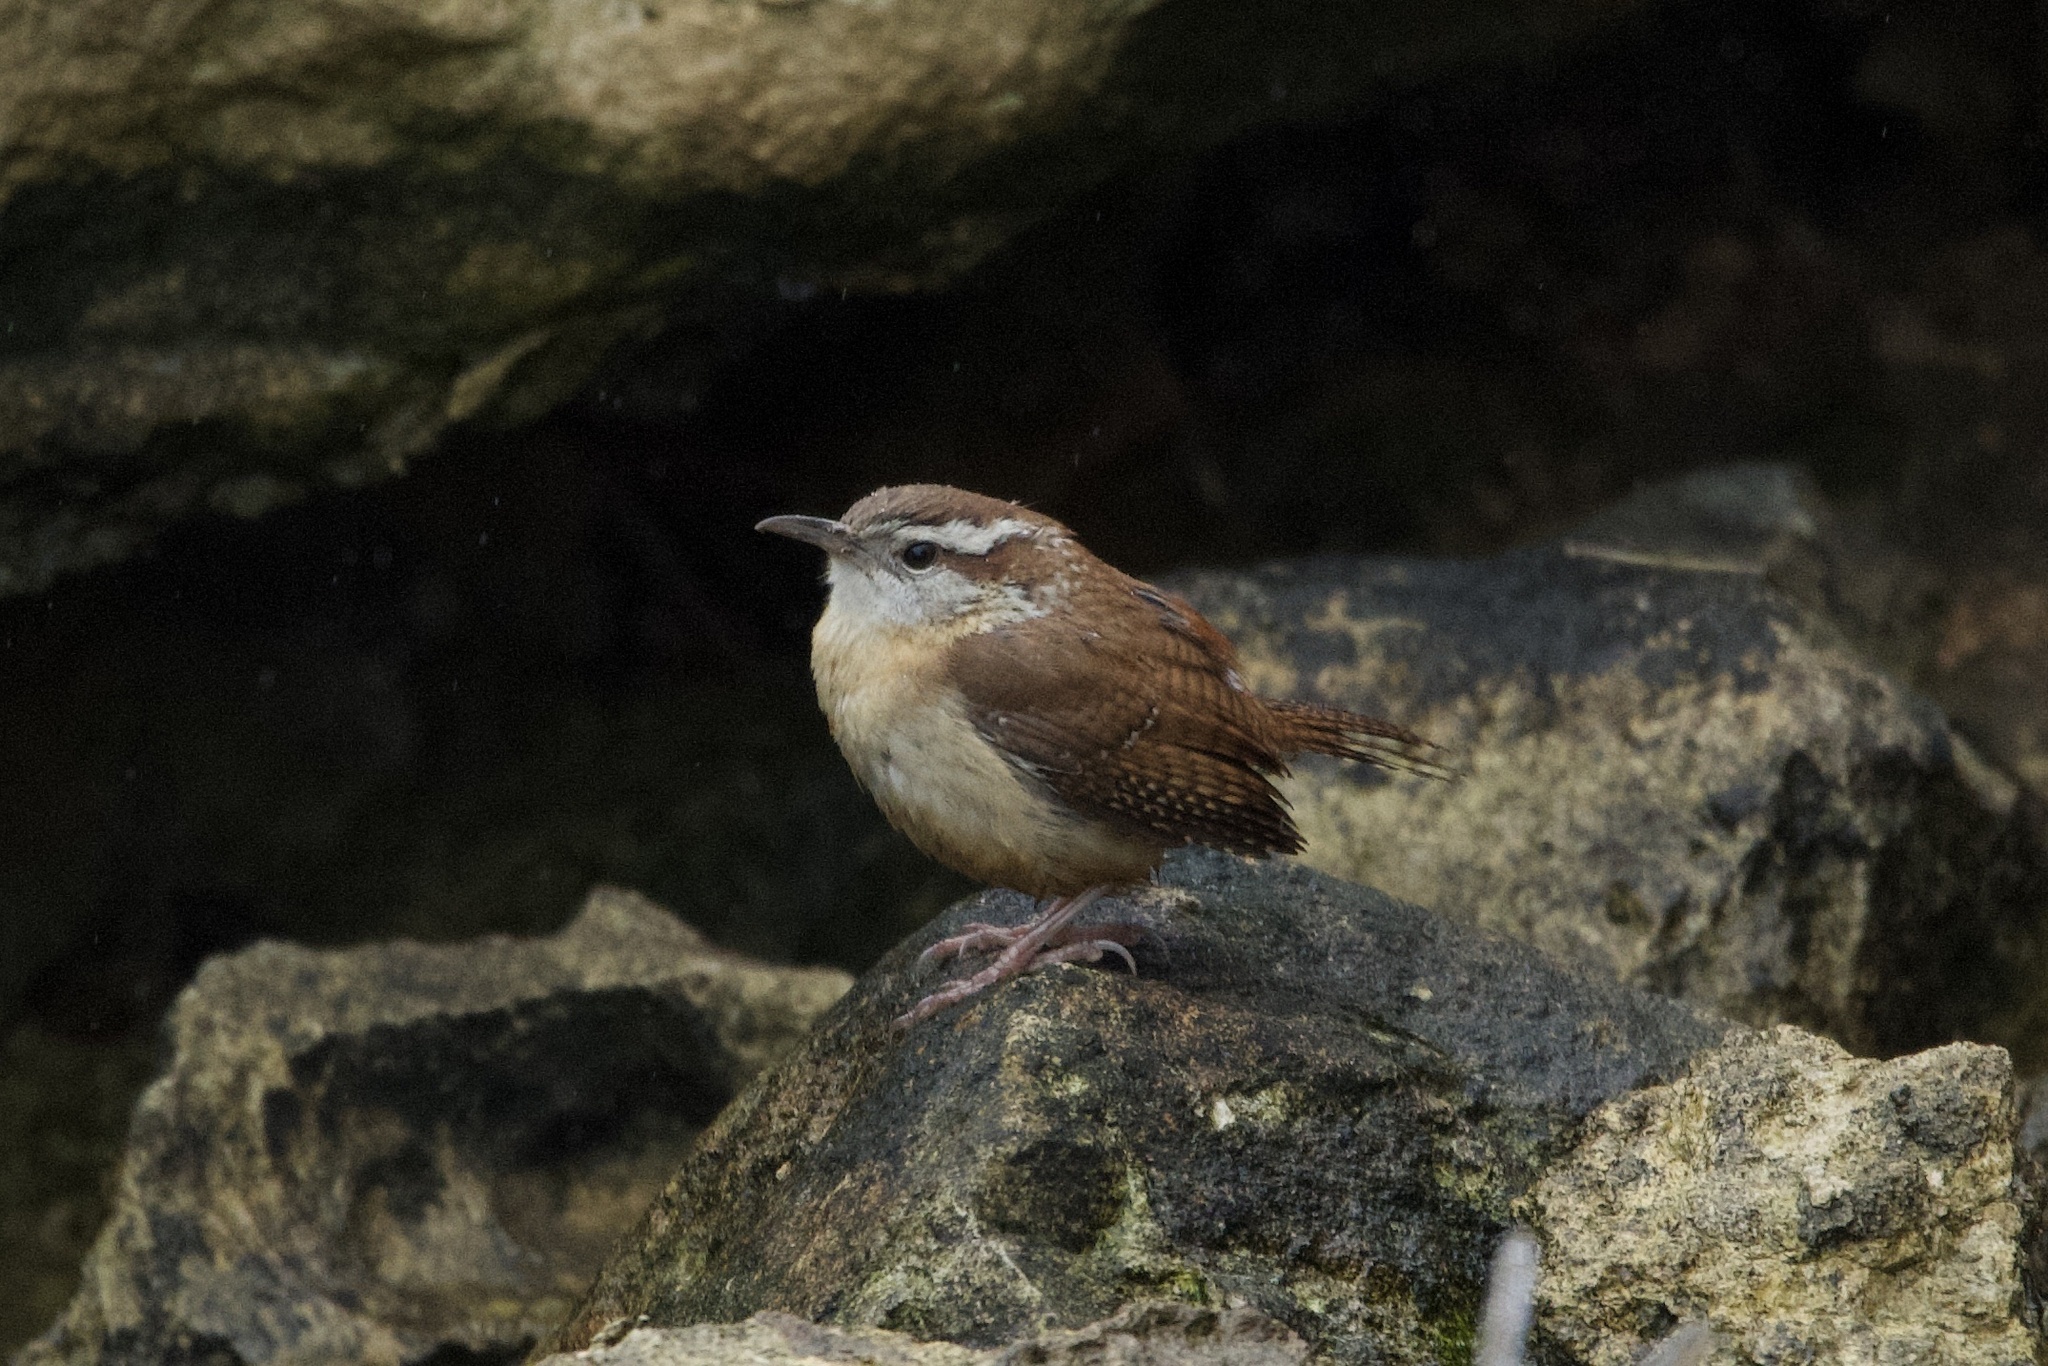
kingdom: Animalia
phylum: Chordata
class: Aves
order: Passeriformes
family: Troglodytidae
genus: Thryothorus
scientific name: Thryothorus ludovicianus
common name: Carolina wren
